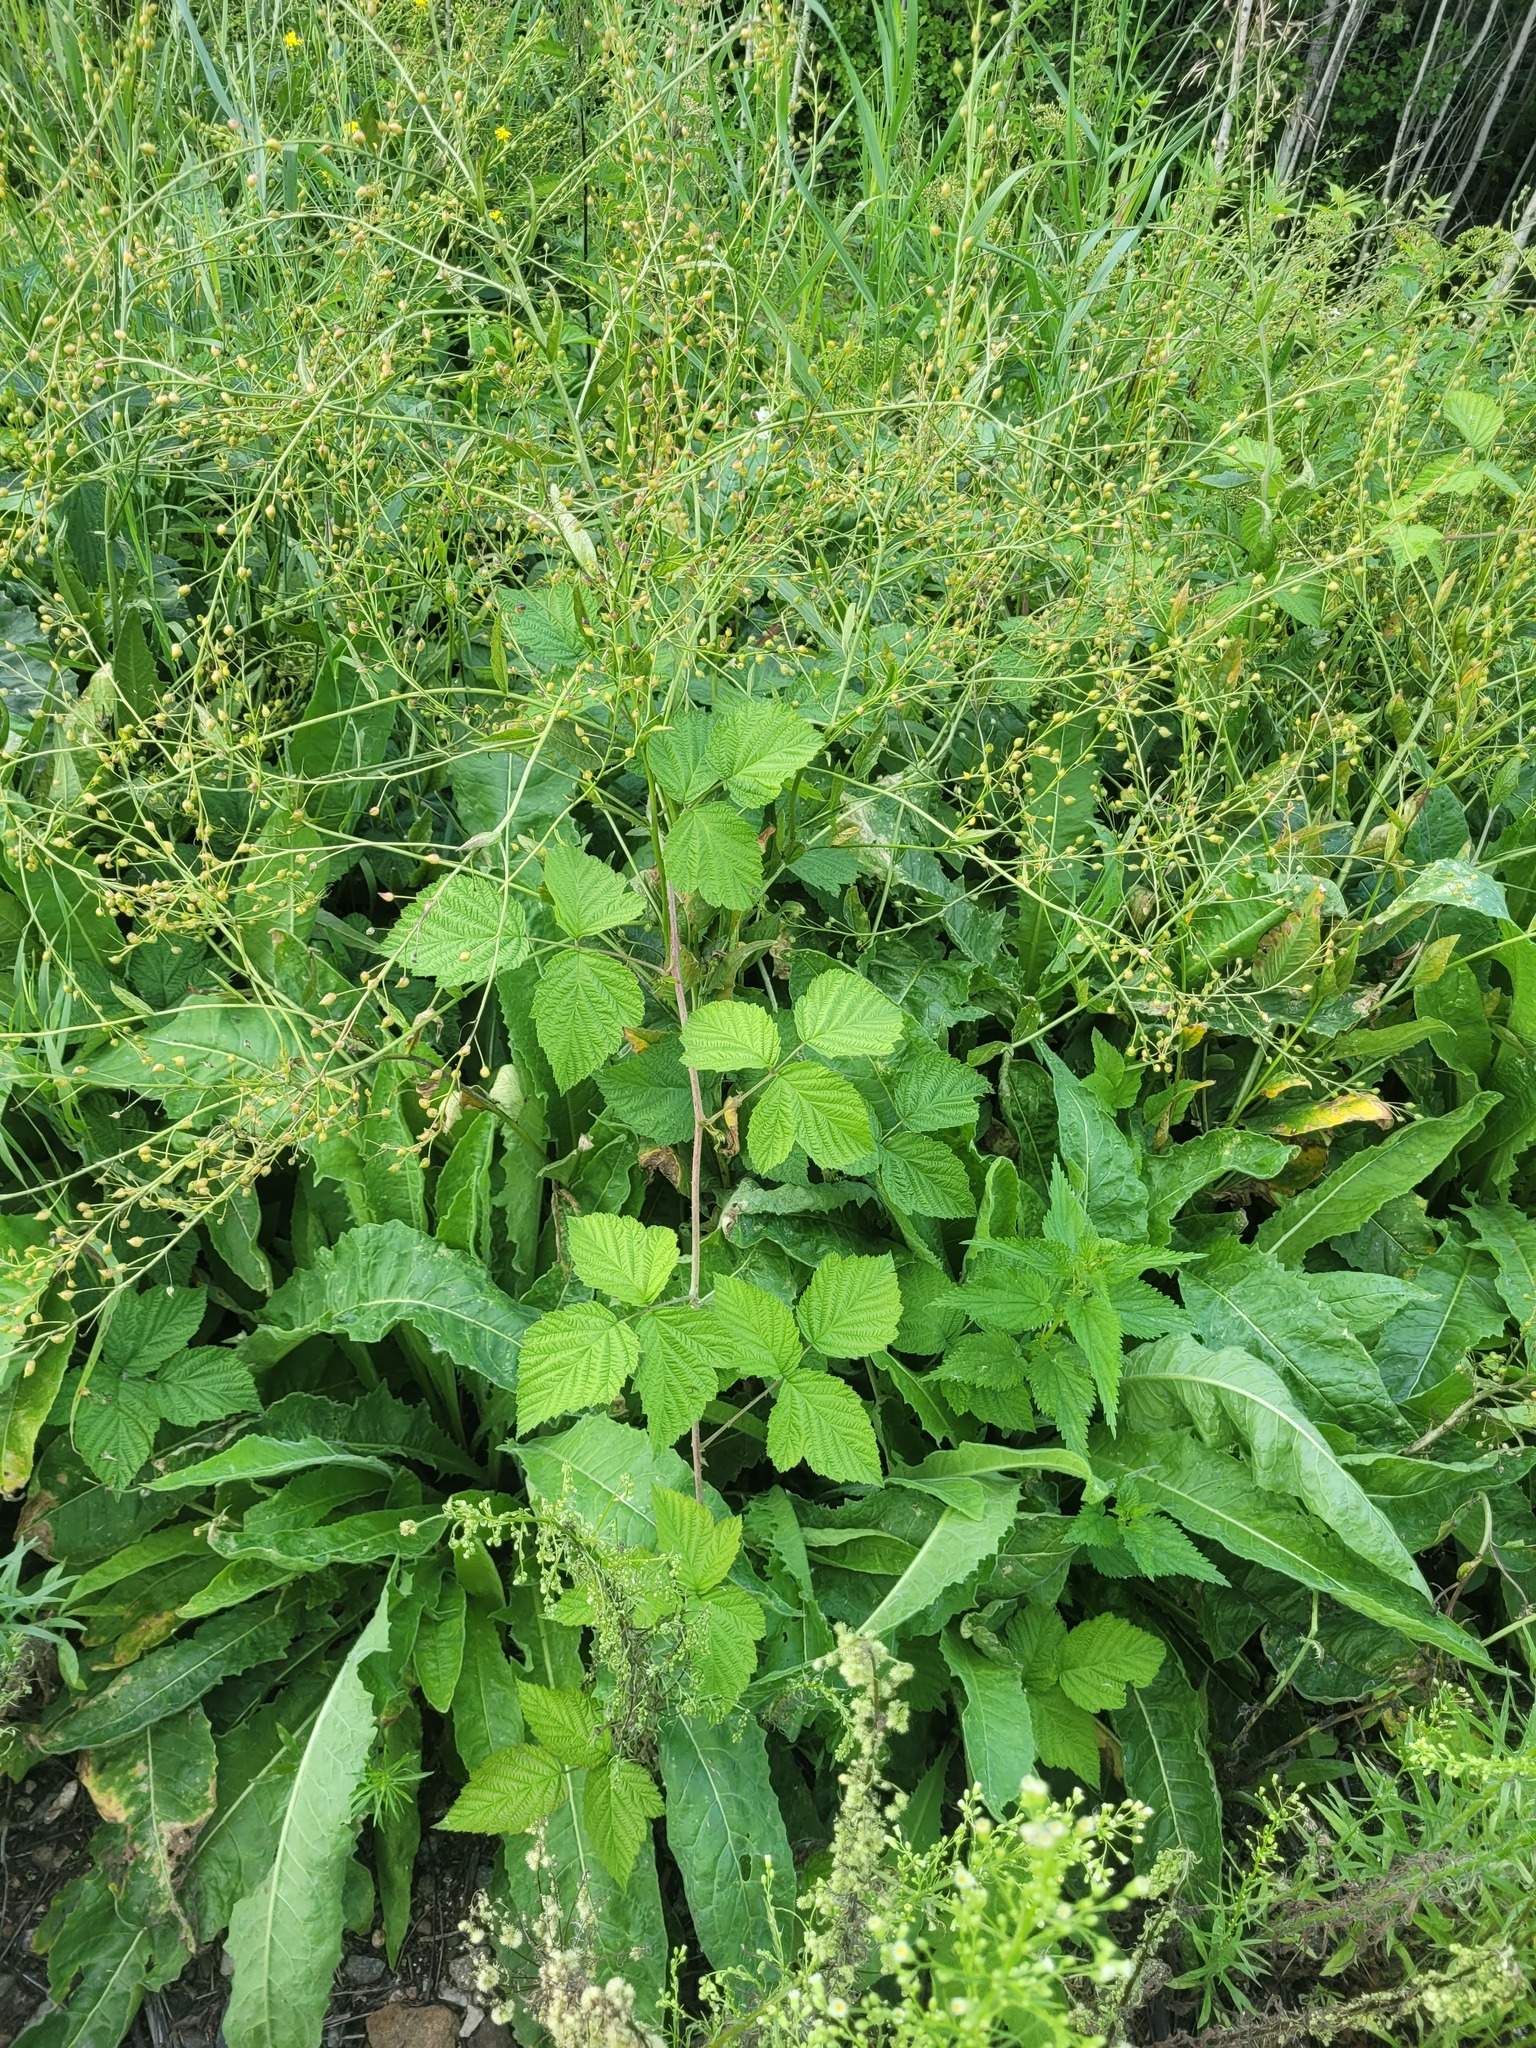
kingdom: Plantae
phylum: Tracheophyta
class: Magnoliopsida
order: Rosales
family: Rosaceae
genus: Rubus
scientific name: Rubus caesius
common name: Dewberry
